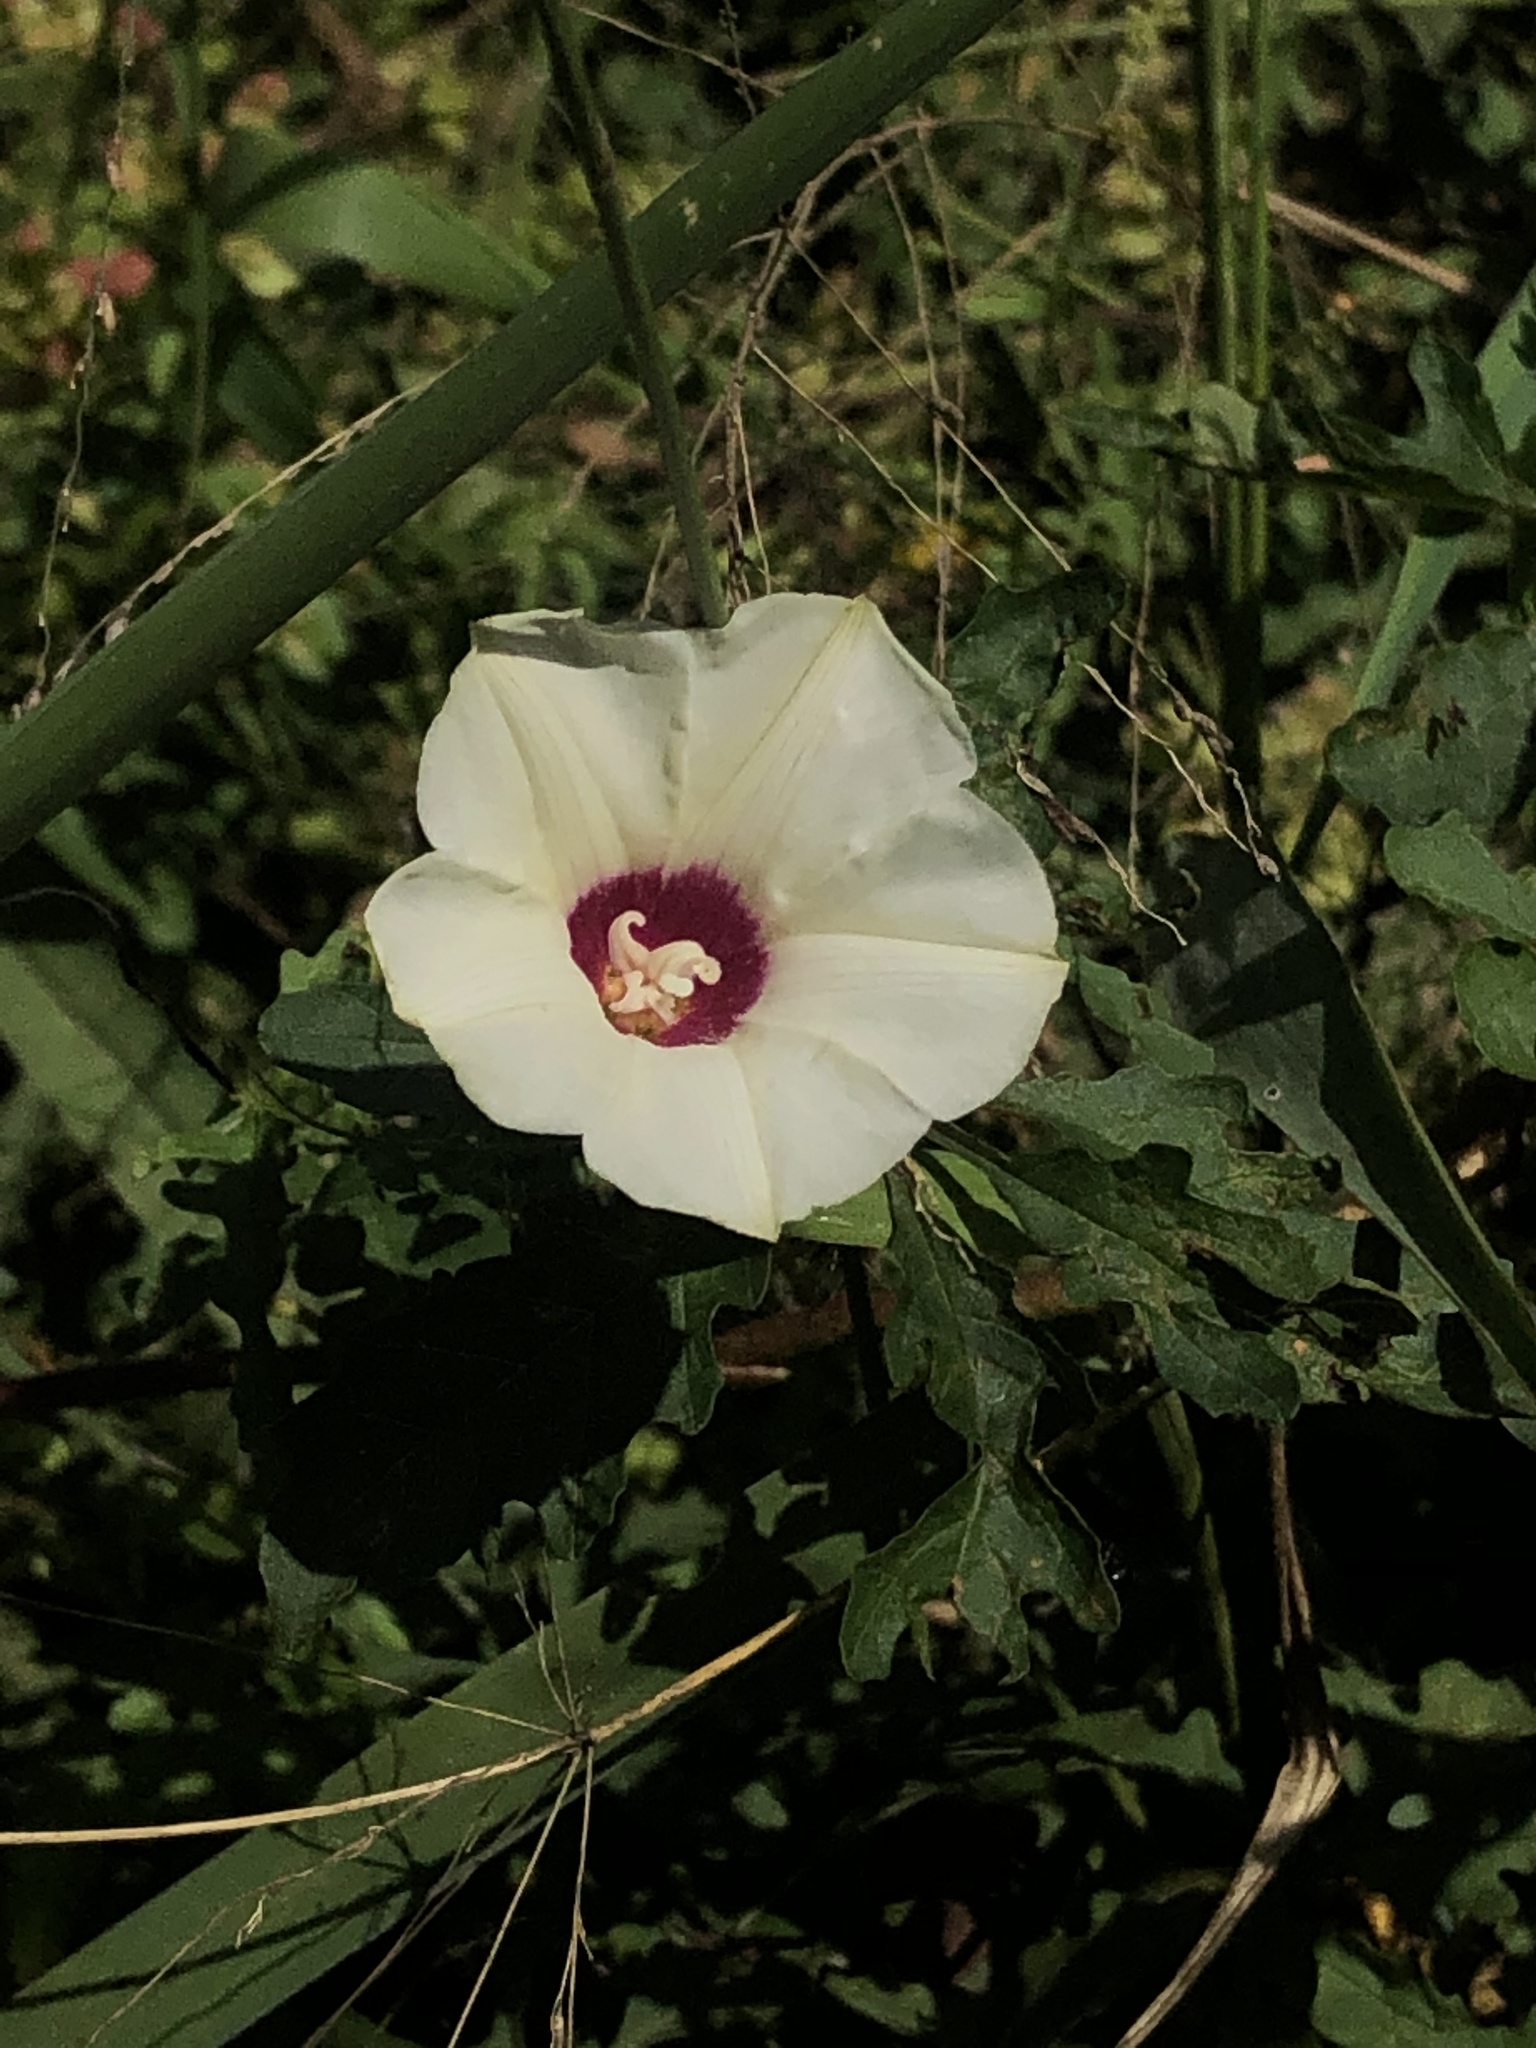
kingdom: Plantae
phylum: Tracheophyta
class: Magnoliopsida
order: Solanales
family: Convolvulaceae
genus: Distimake
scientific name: Distimake dissectus
